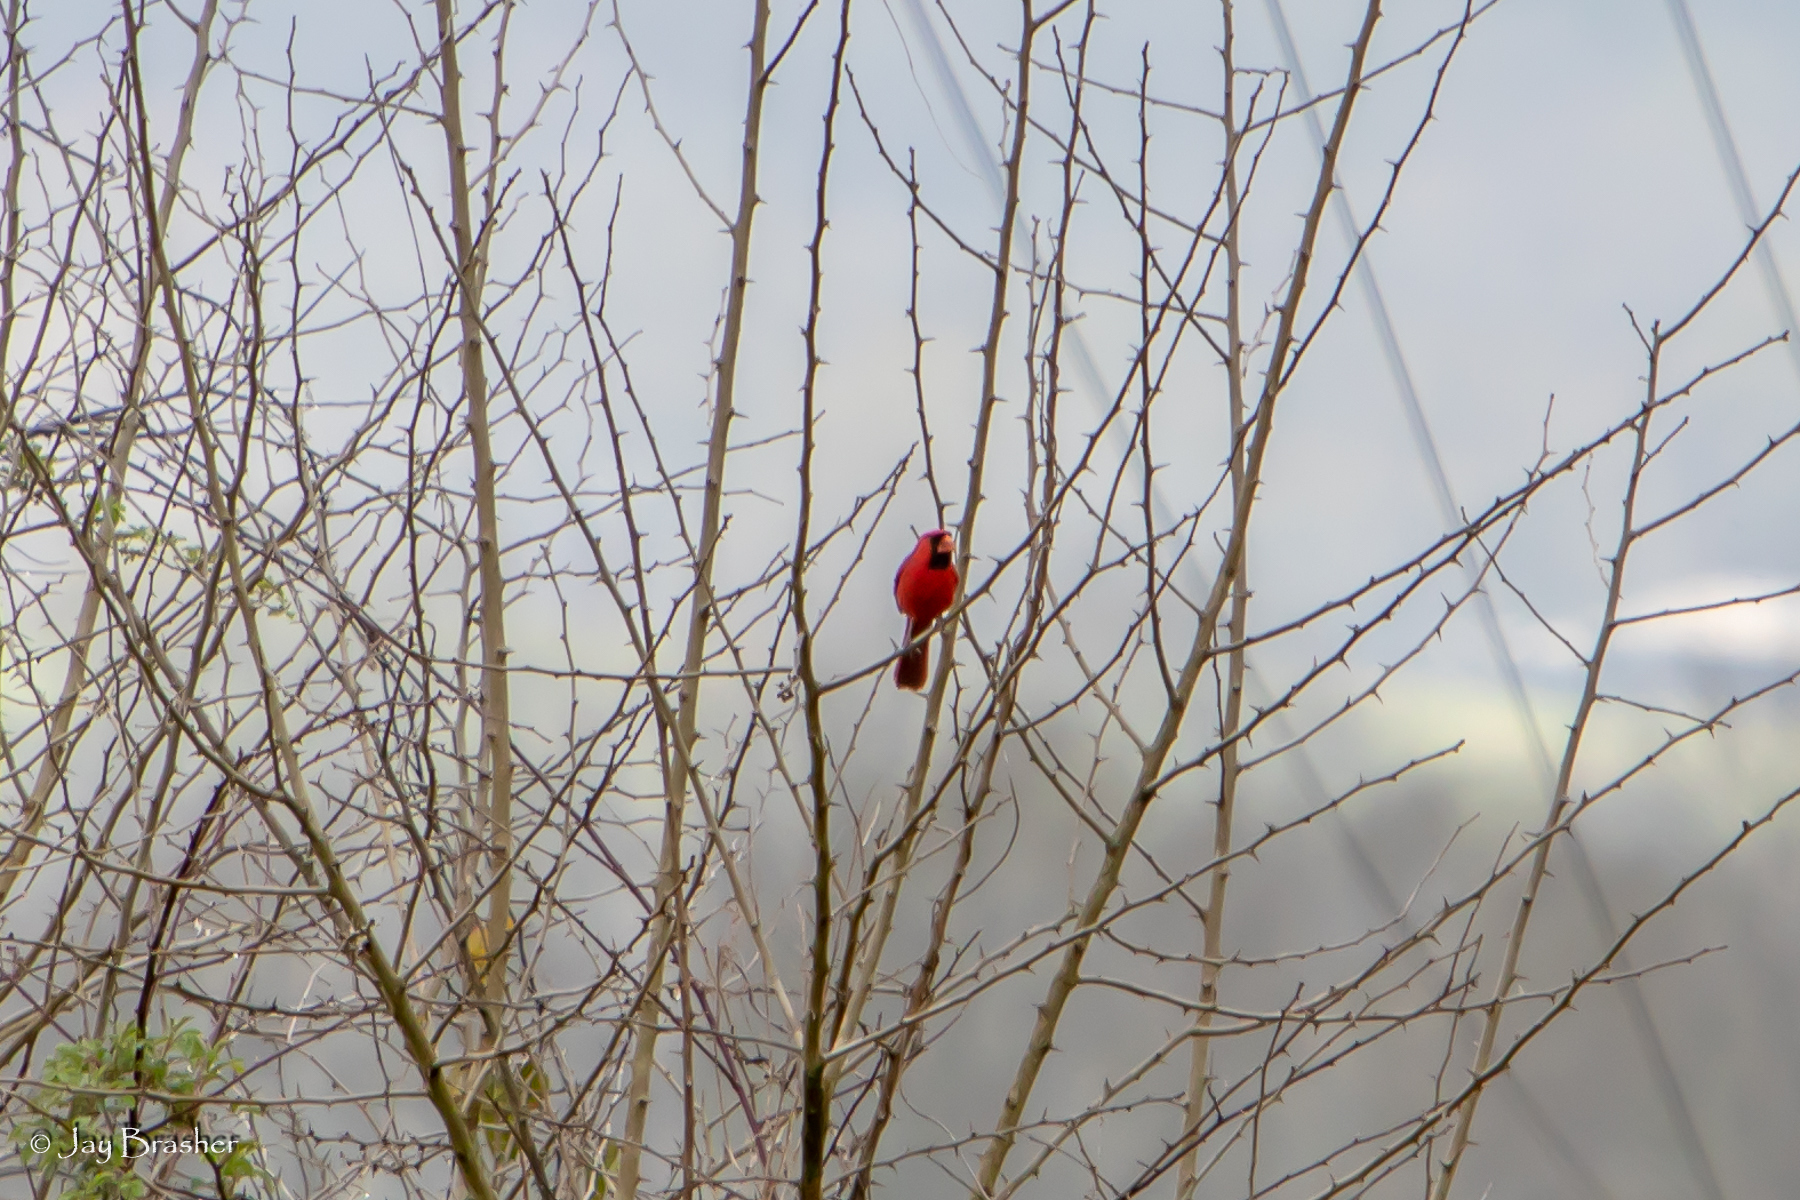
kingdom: Animalia
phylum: Chordata
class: Aves
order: Passeriformes
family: Cardinalidae
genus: Cardinalis
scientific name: Cardinalis cardinalis
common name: Northern cardinal
